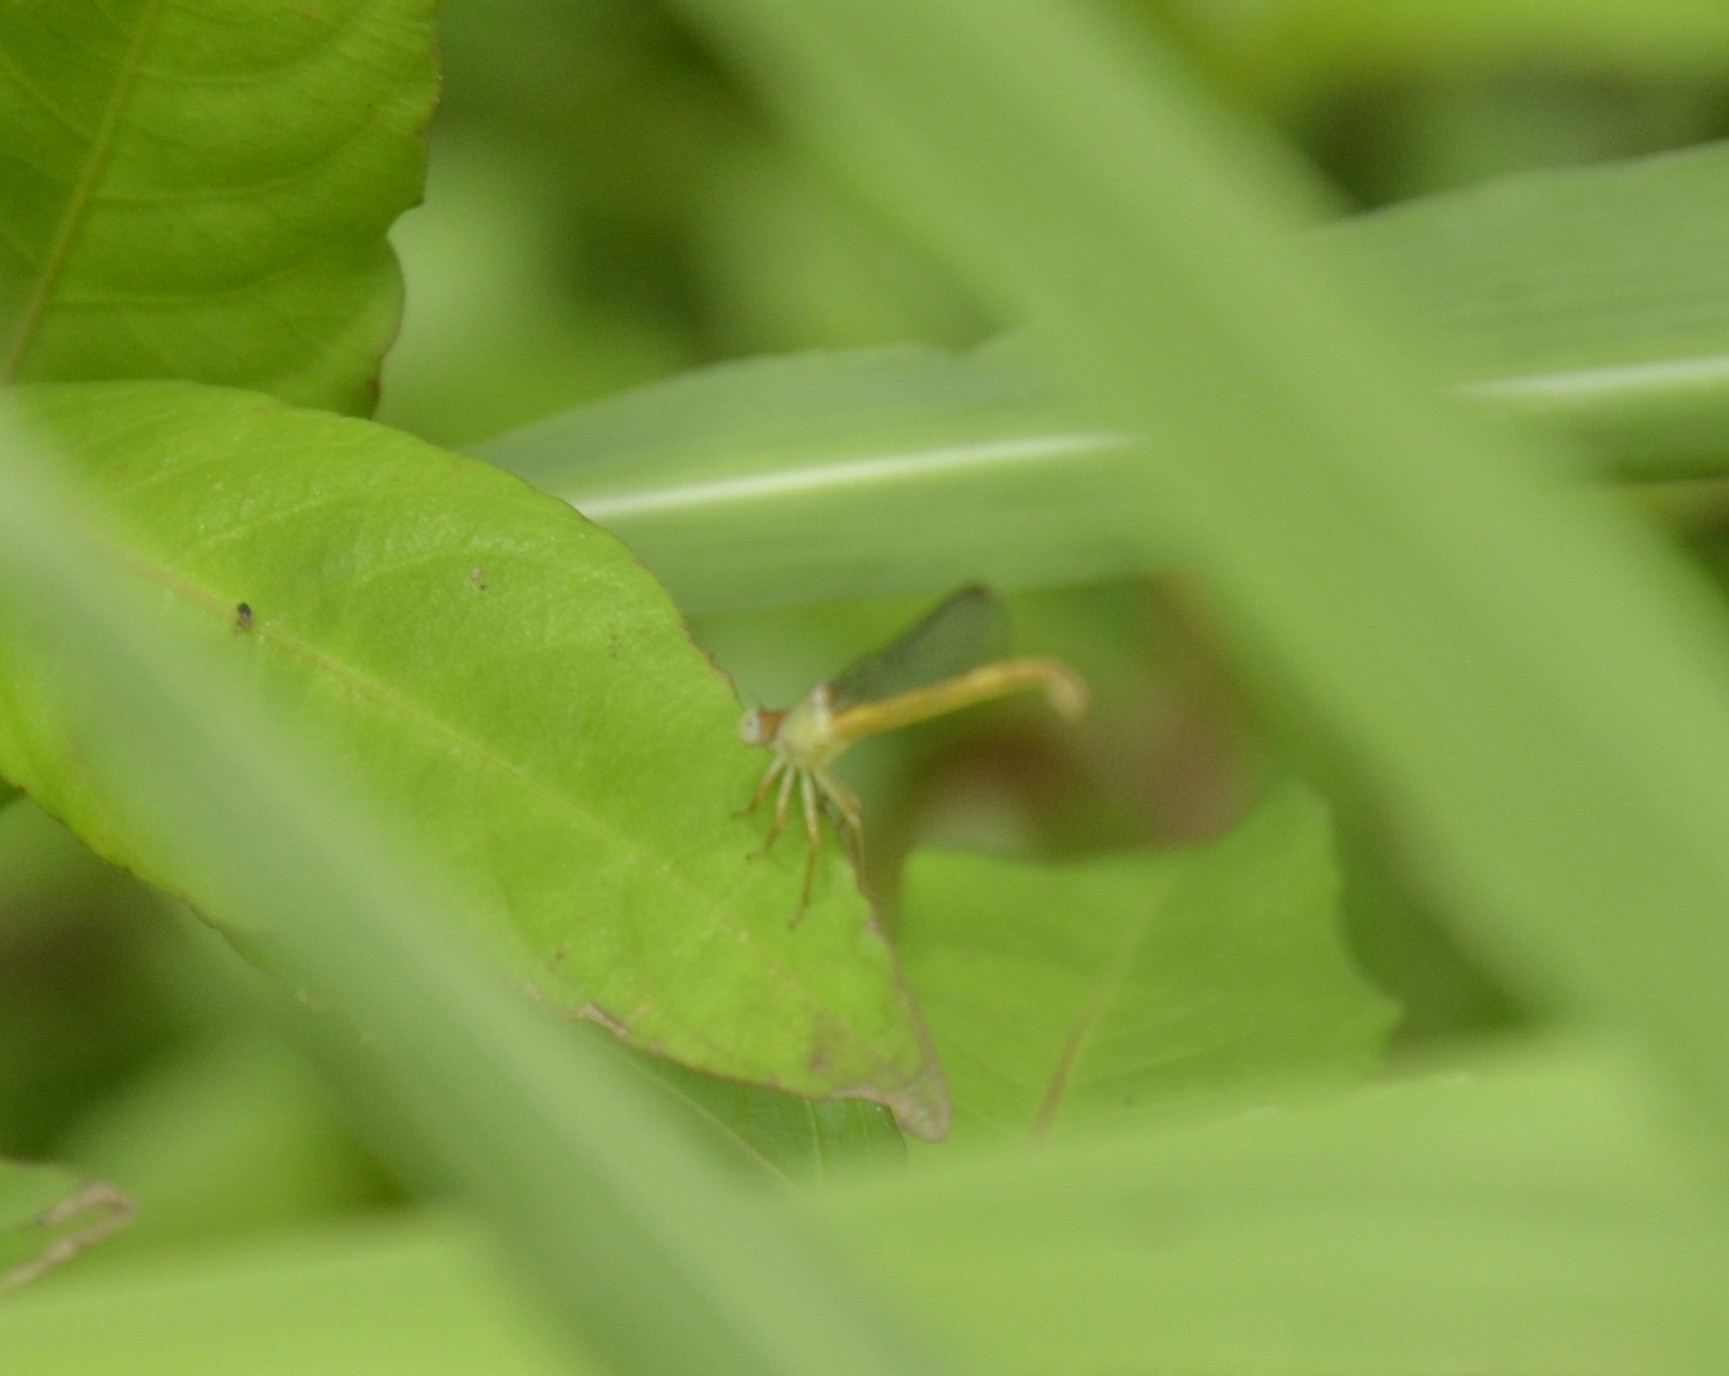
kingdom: Animalia
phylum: Arthropoda
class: Insecta
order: Odonata
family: Coenagrionidae
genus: Ceriagrion
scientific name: Ceriagrion coromandelianum
